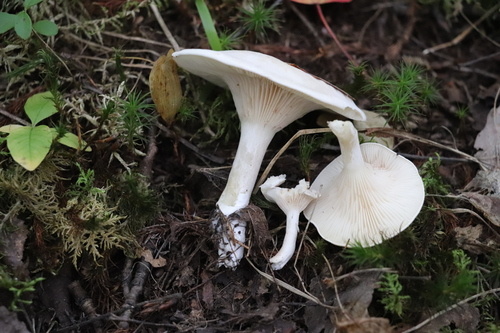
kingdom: Fungi
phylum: Basidiomycota
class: Agaricomycetes
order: Agaricales
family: Entolomataceae
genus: Clitopilus
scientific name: Clitopilus prunulus
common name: The miller
